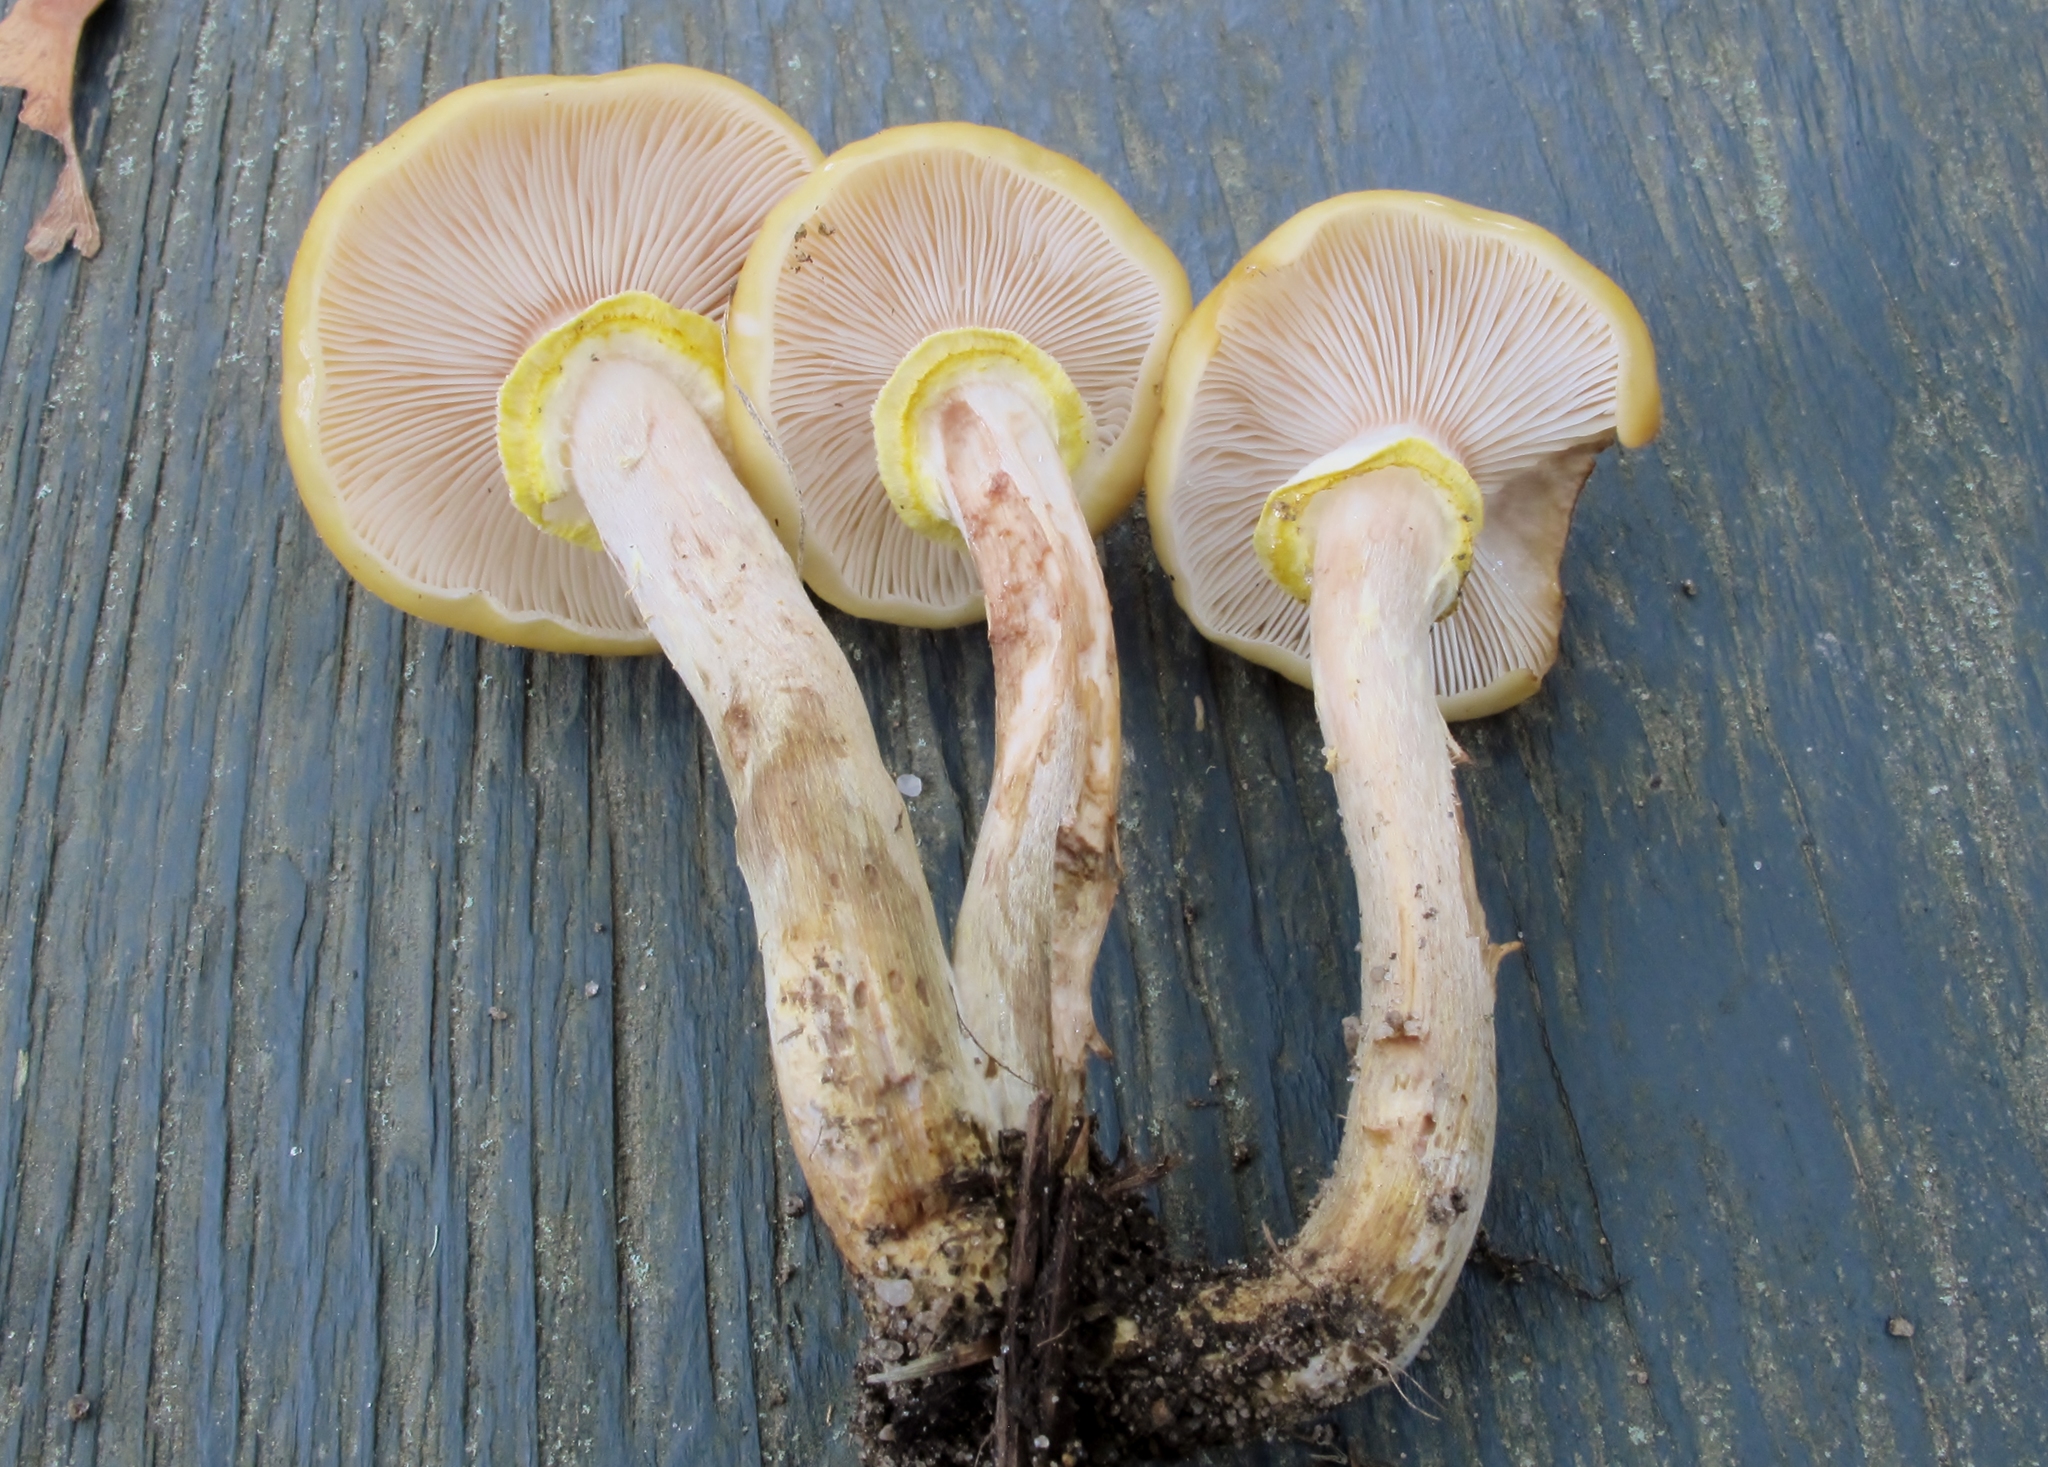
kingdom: Fungi
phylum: Basidiomycota
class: Agaricomycetes
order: Agaricales
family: Physalacriaceae
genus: Armillaria
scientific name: Armillaria mellea
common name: Honey fungus
